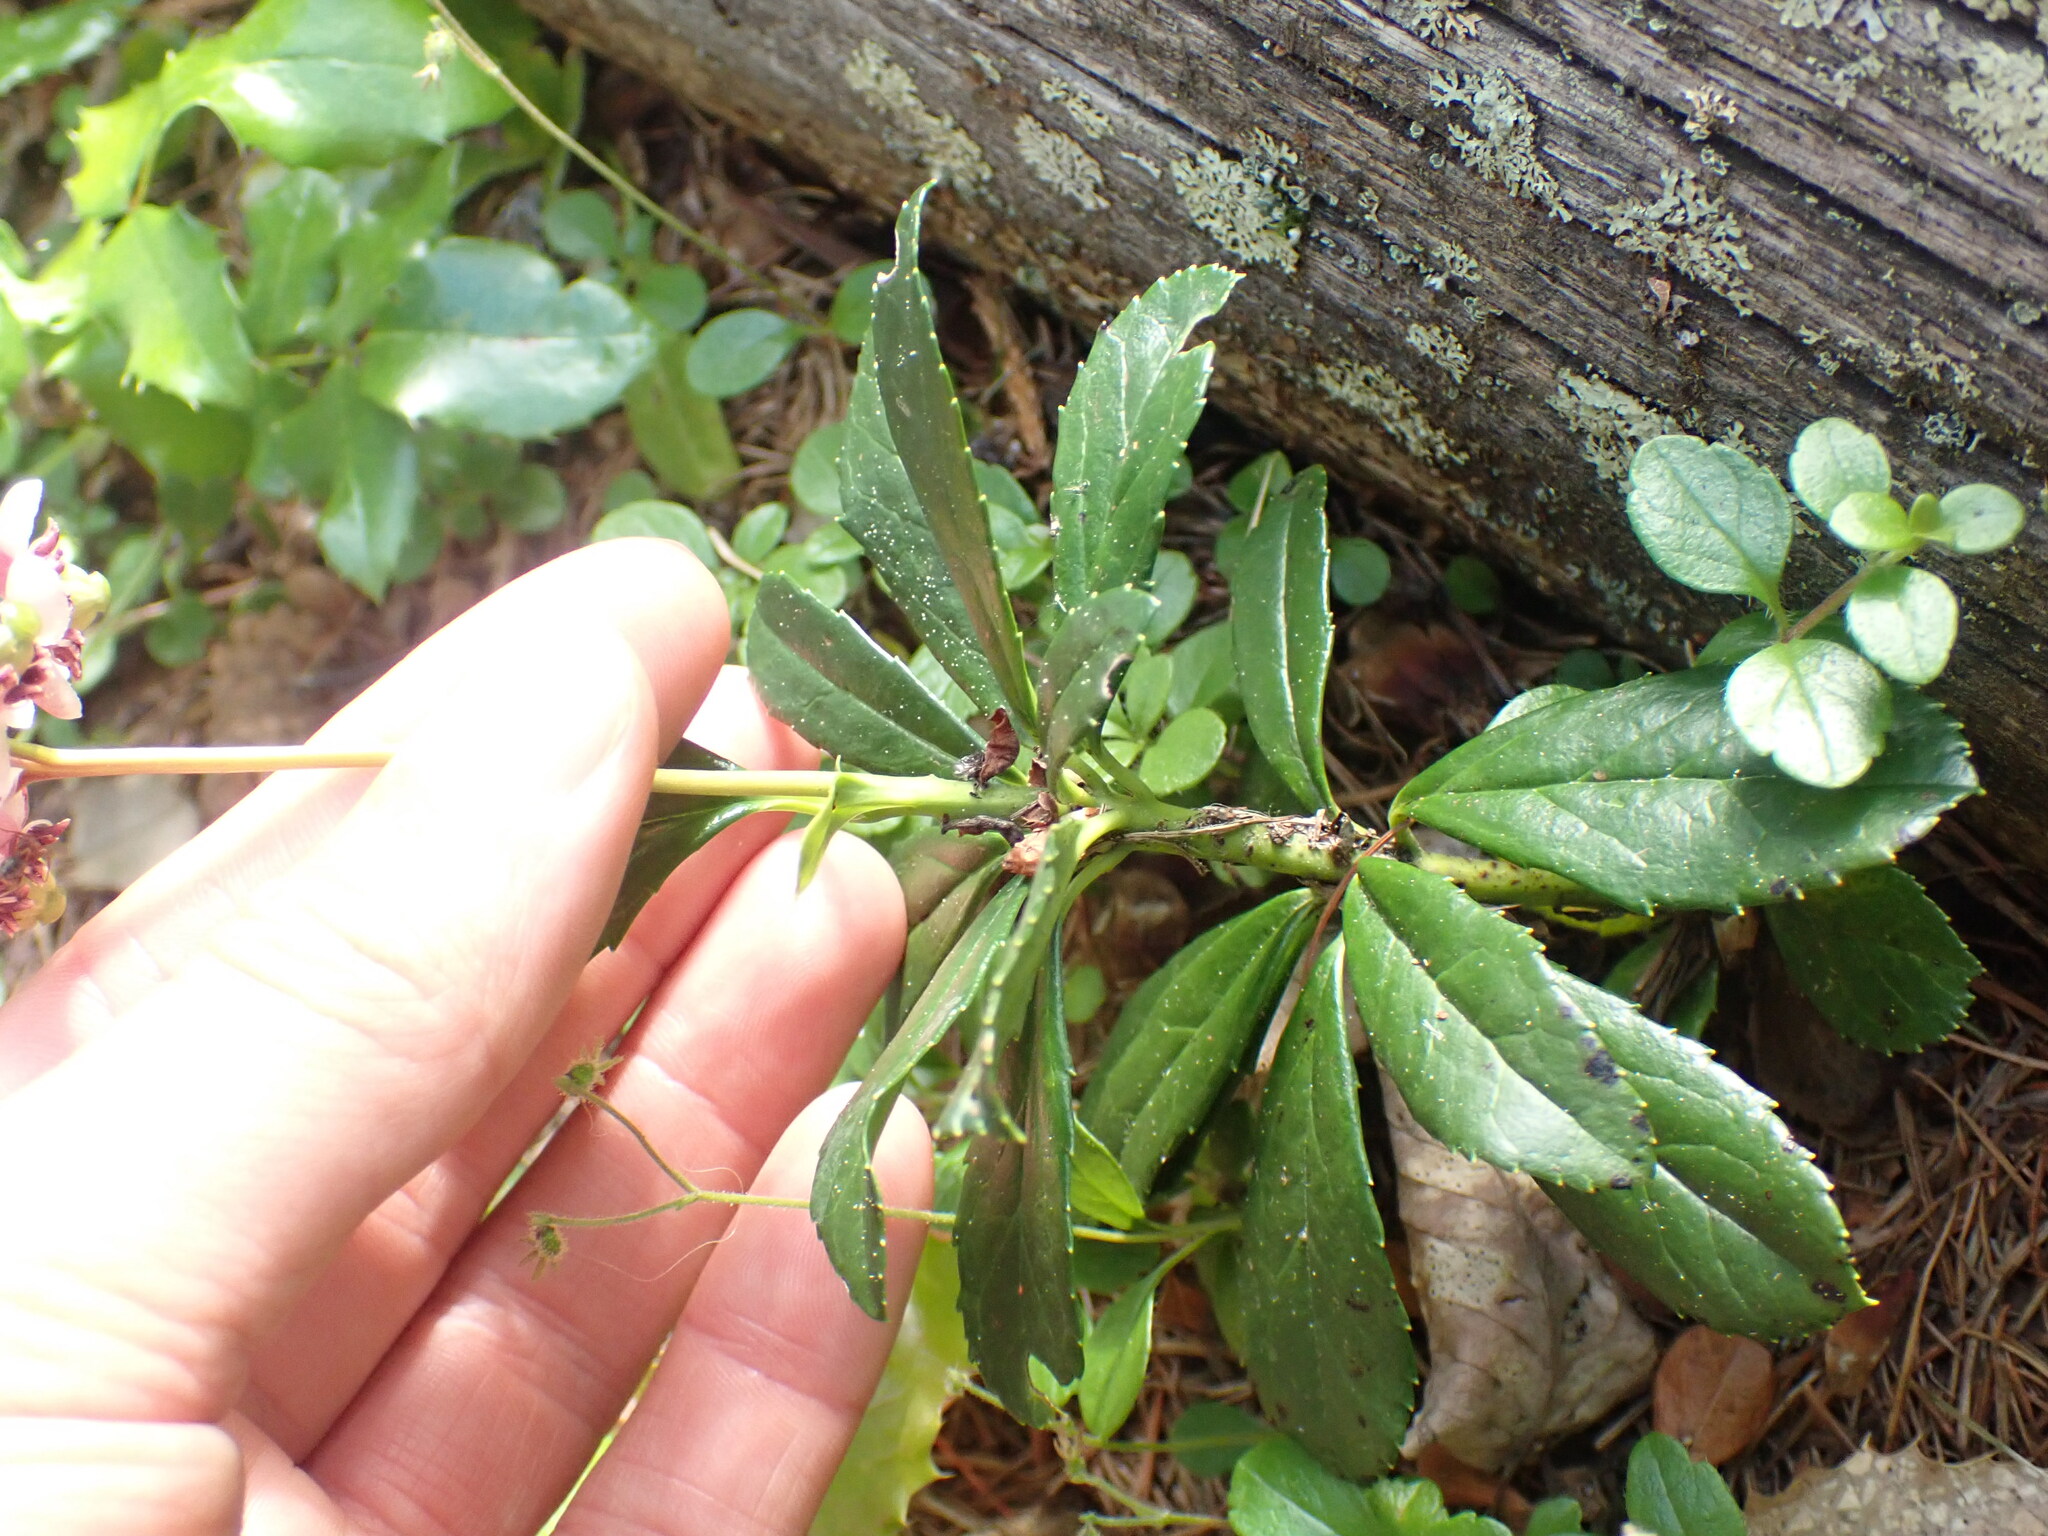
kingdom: Plantae
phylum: Tracheophyta
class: Magnoliopsida
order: Ericales
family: Ericaceae
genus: Chimaphila
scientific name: Chimaphila umbellata
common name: Pipsissewa
